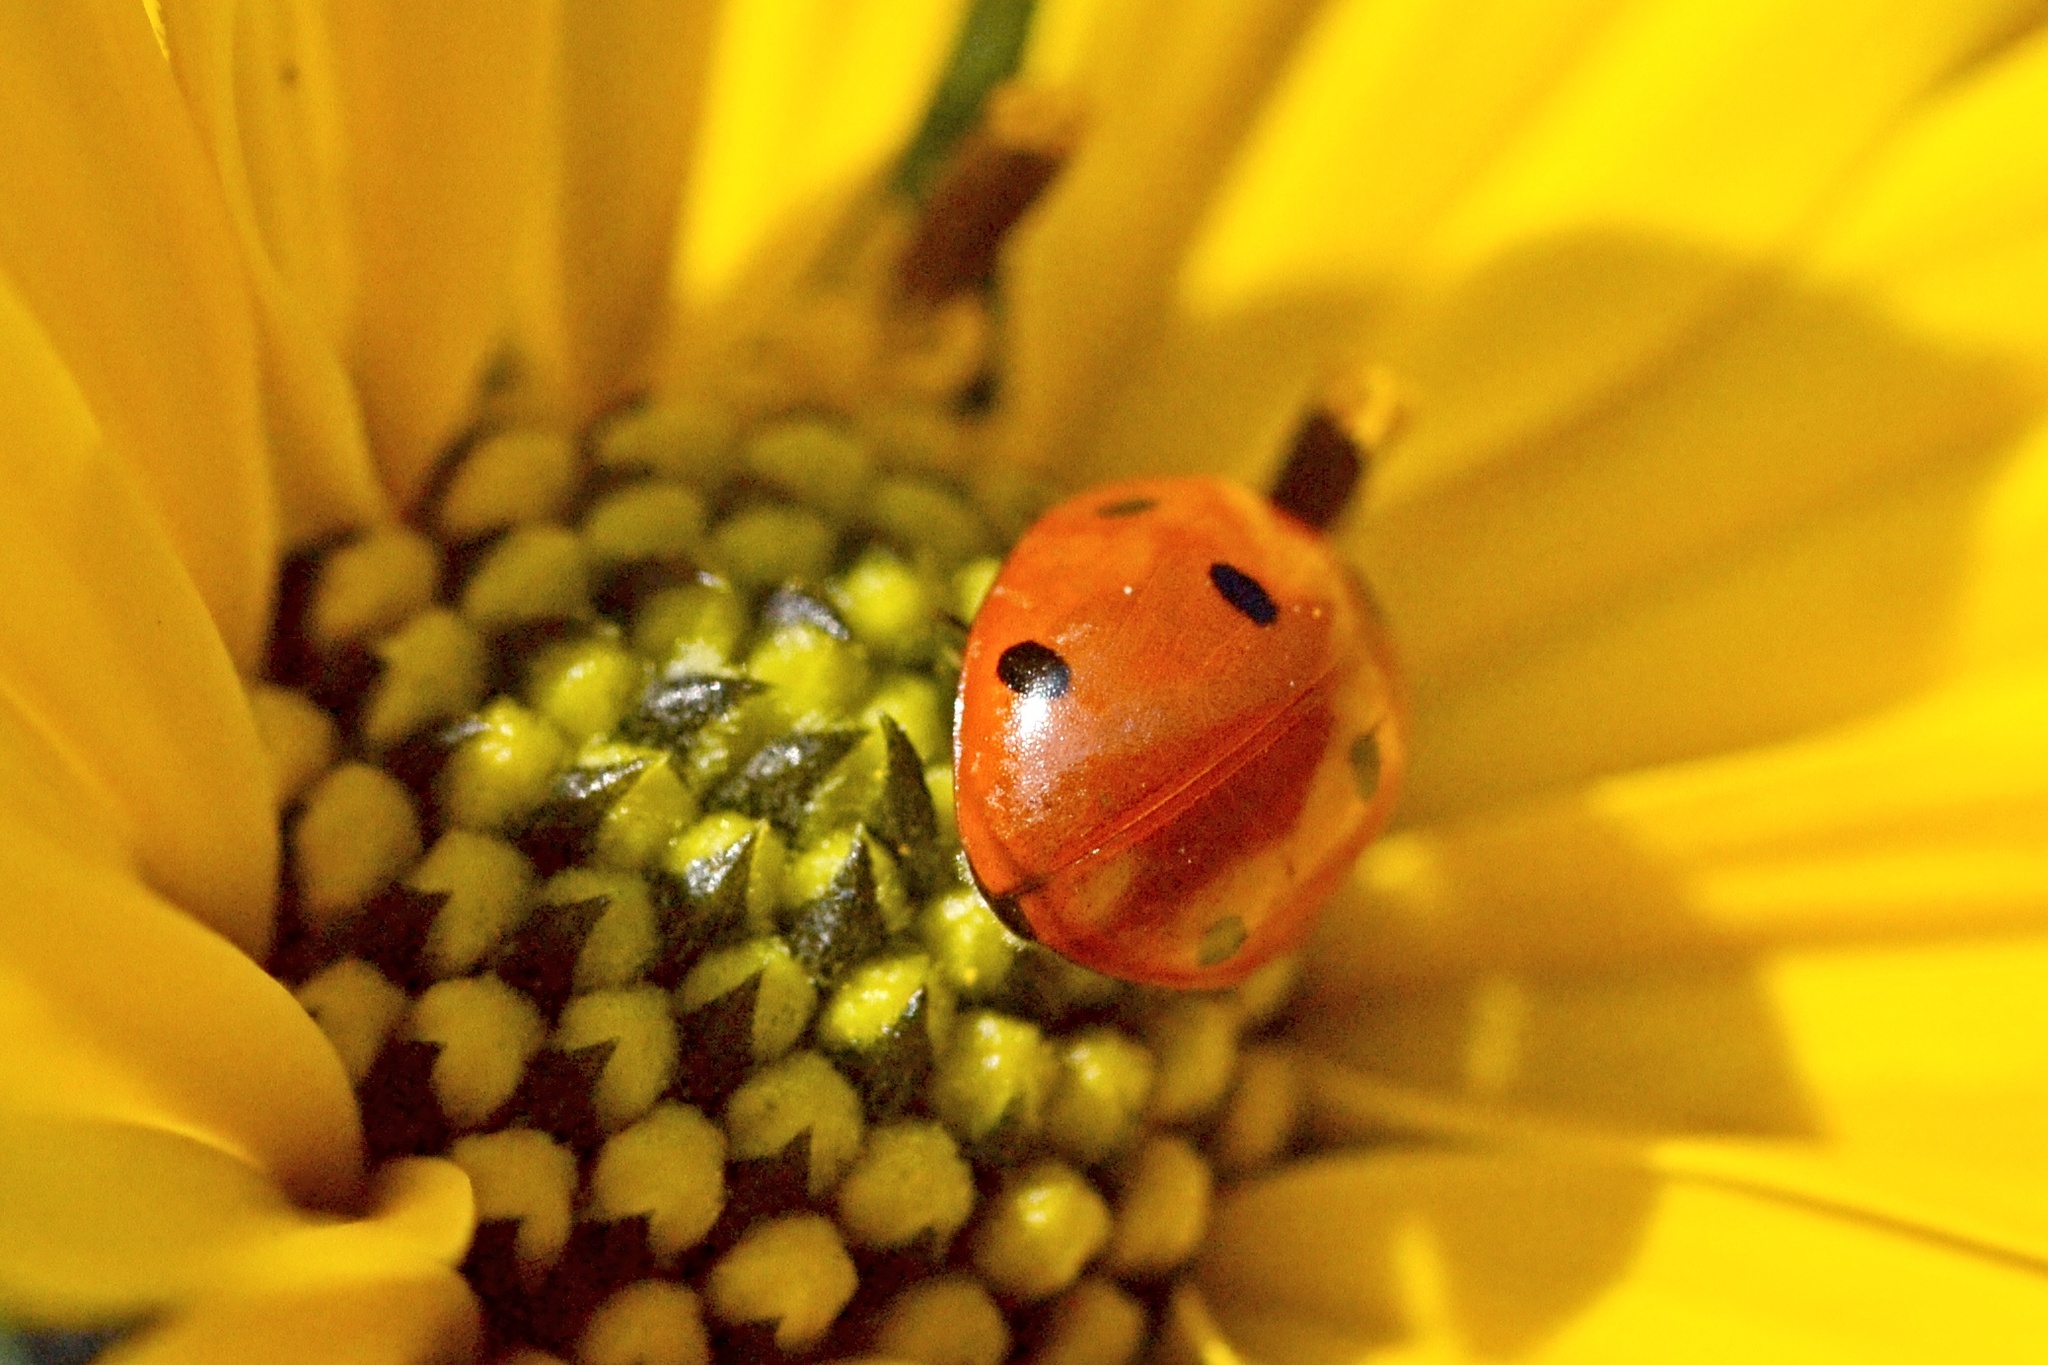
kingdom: Animalia
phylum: Arthropoda
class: Insecta
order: Coleoptera
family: Coccinellidae
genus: Coccinella
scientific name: Coccinella septempunctata
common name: Sevenspotted lady beetle
